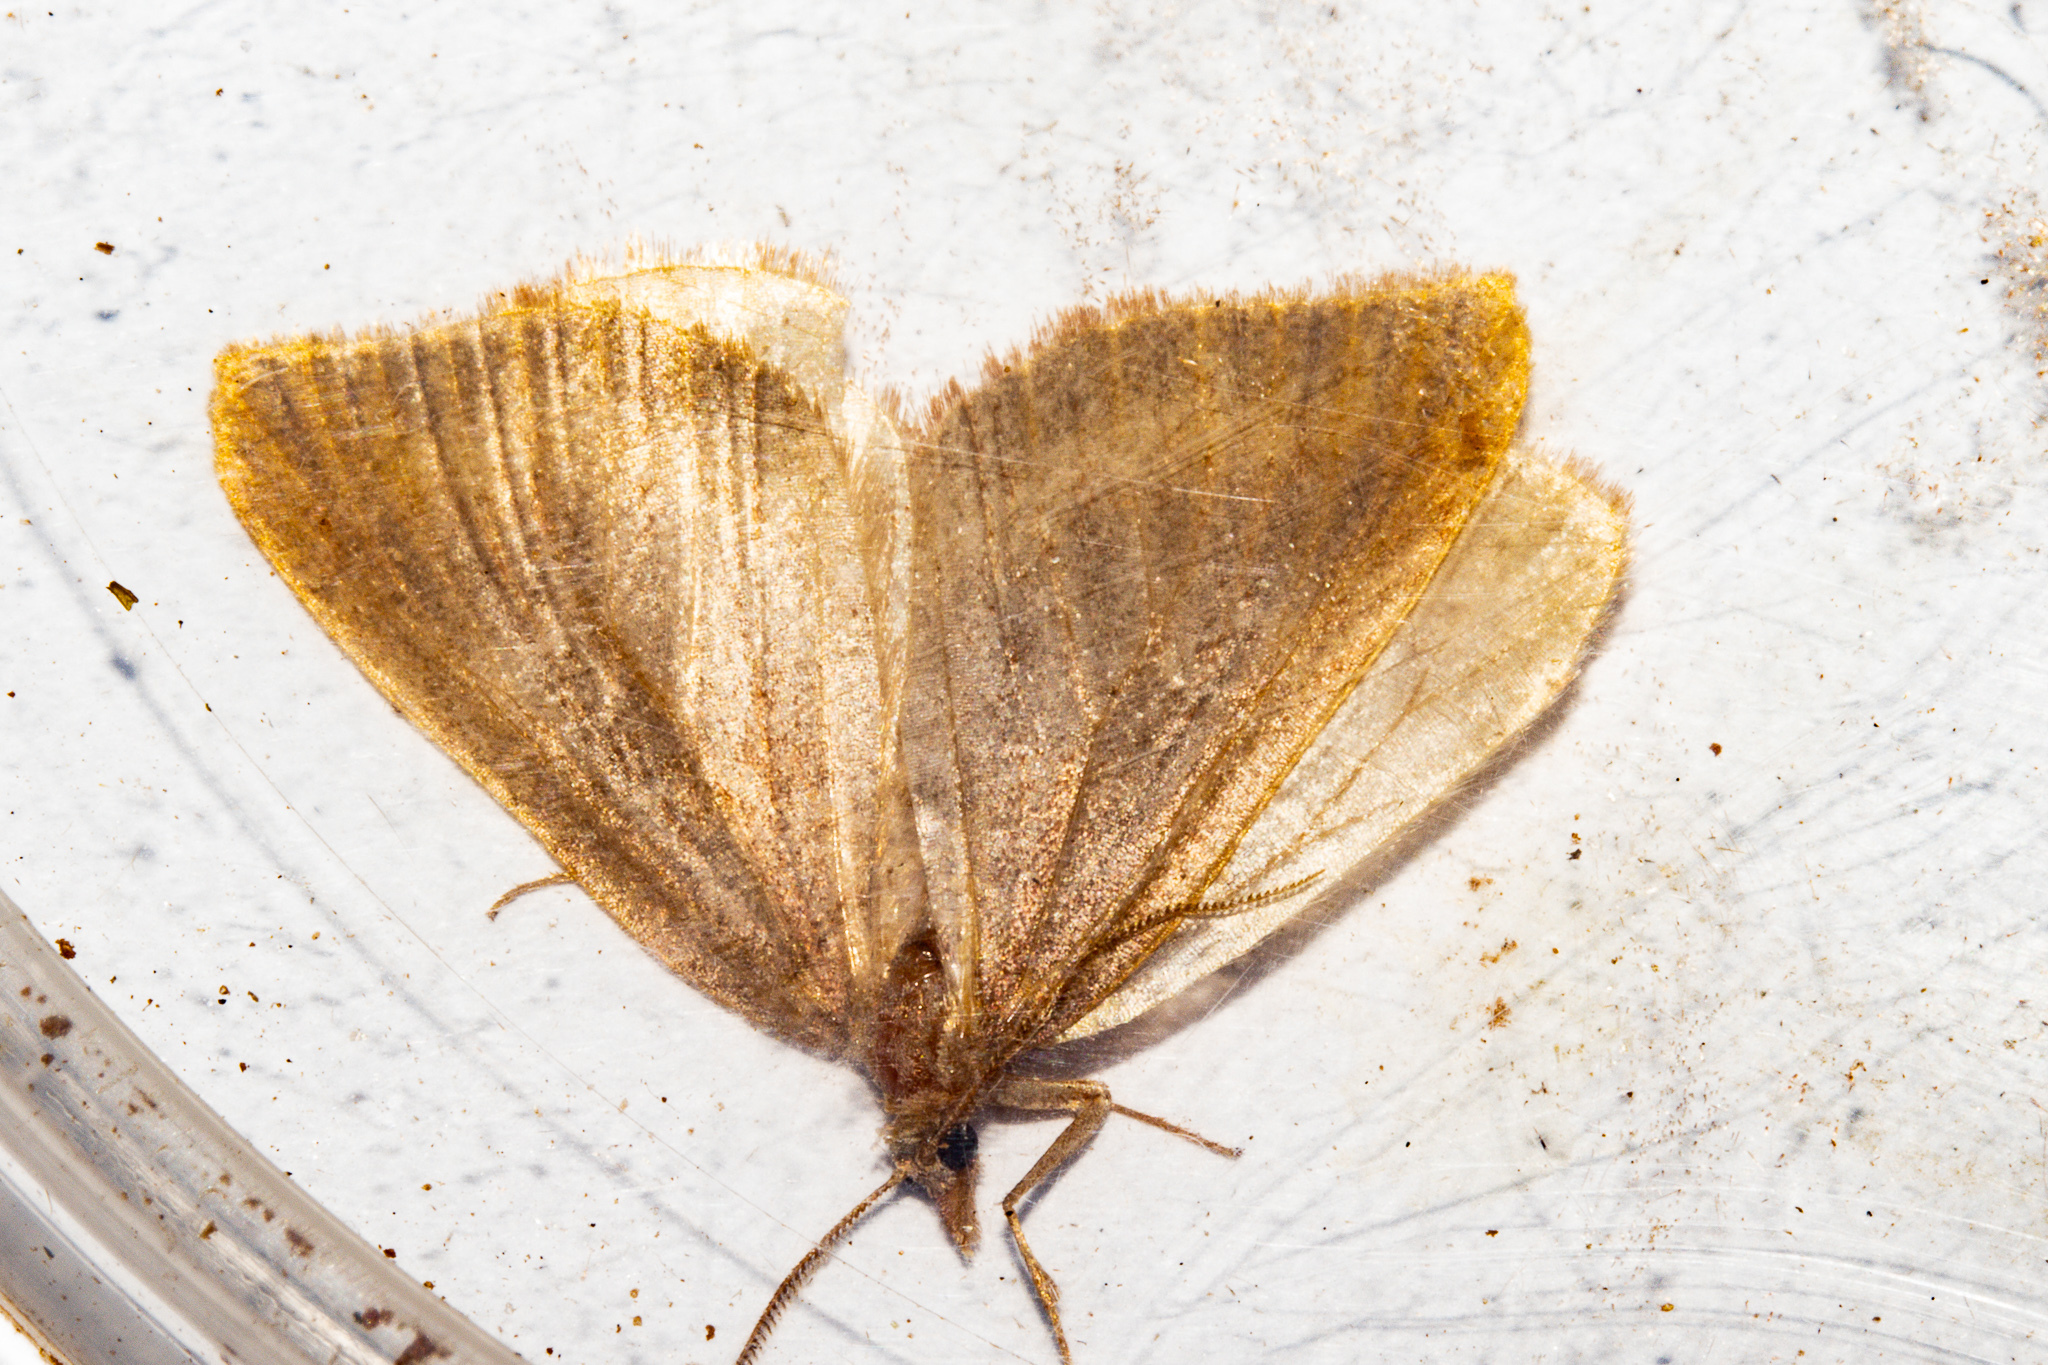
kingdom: Animalia
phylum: Arthropoda
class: Insecta
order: Lepidoptera
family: Geometridae
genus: Xanthorhoe
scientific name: Xanthorhoe occulta
